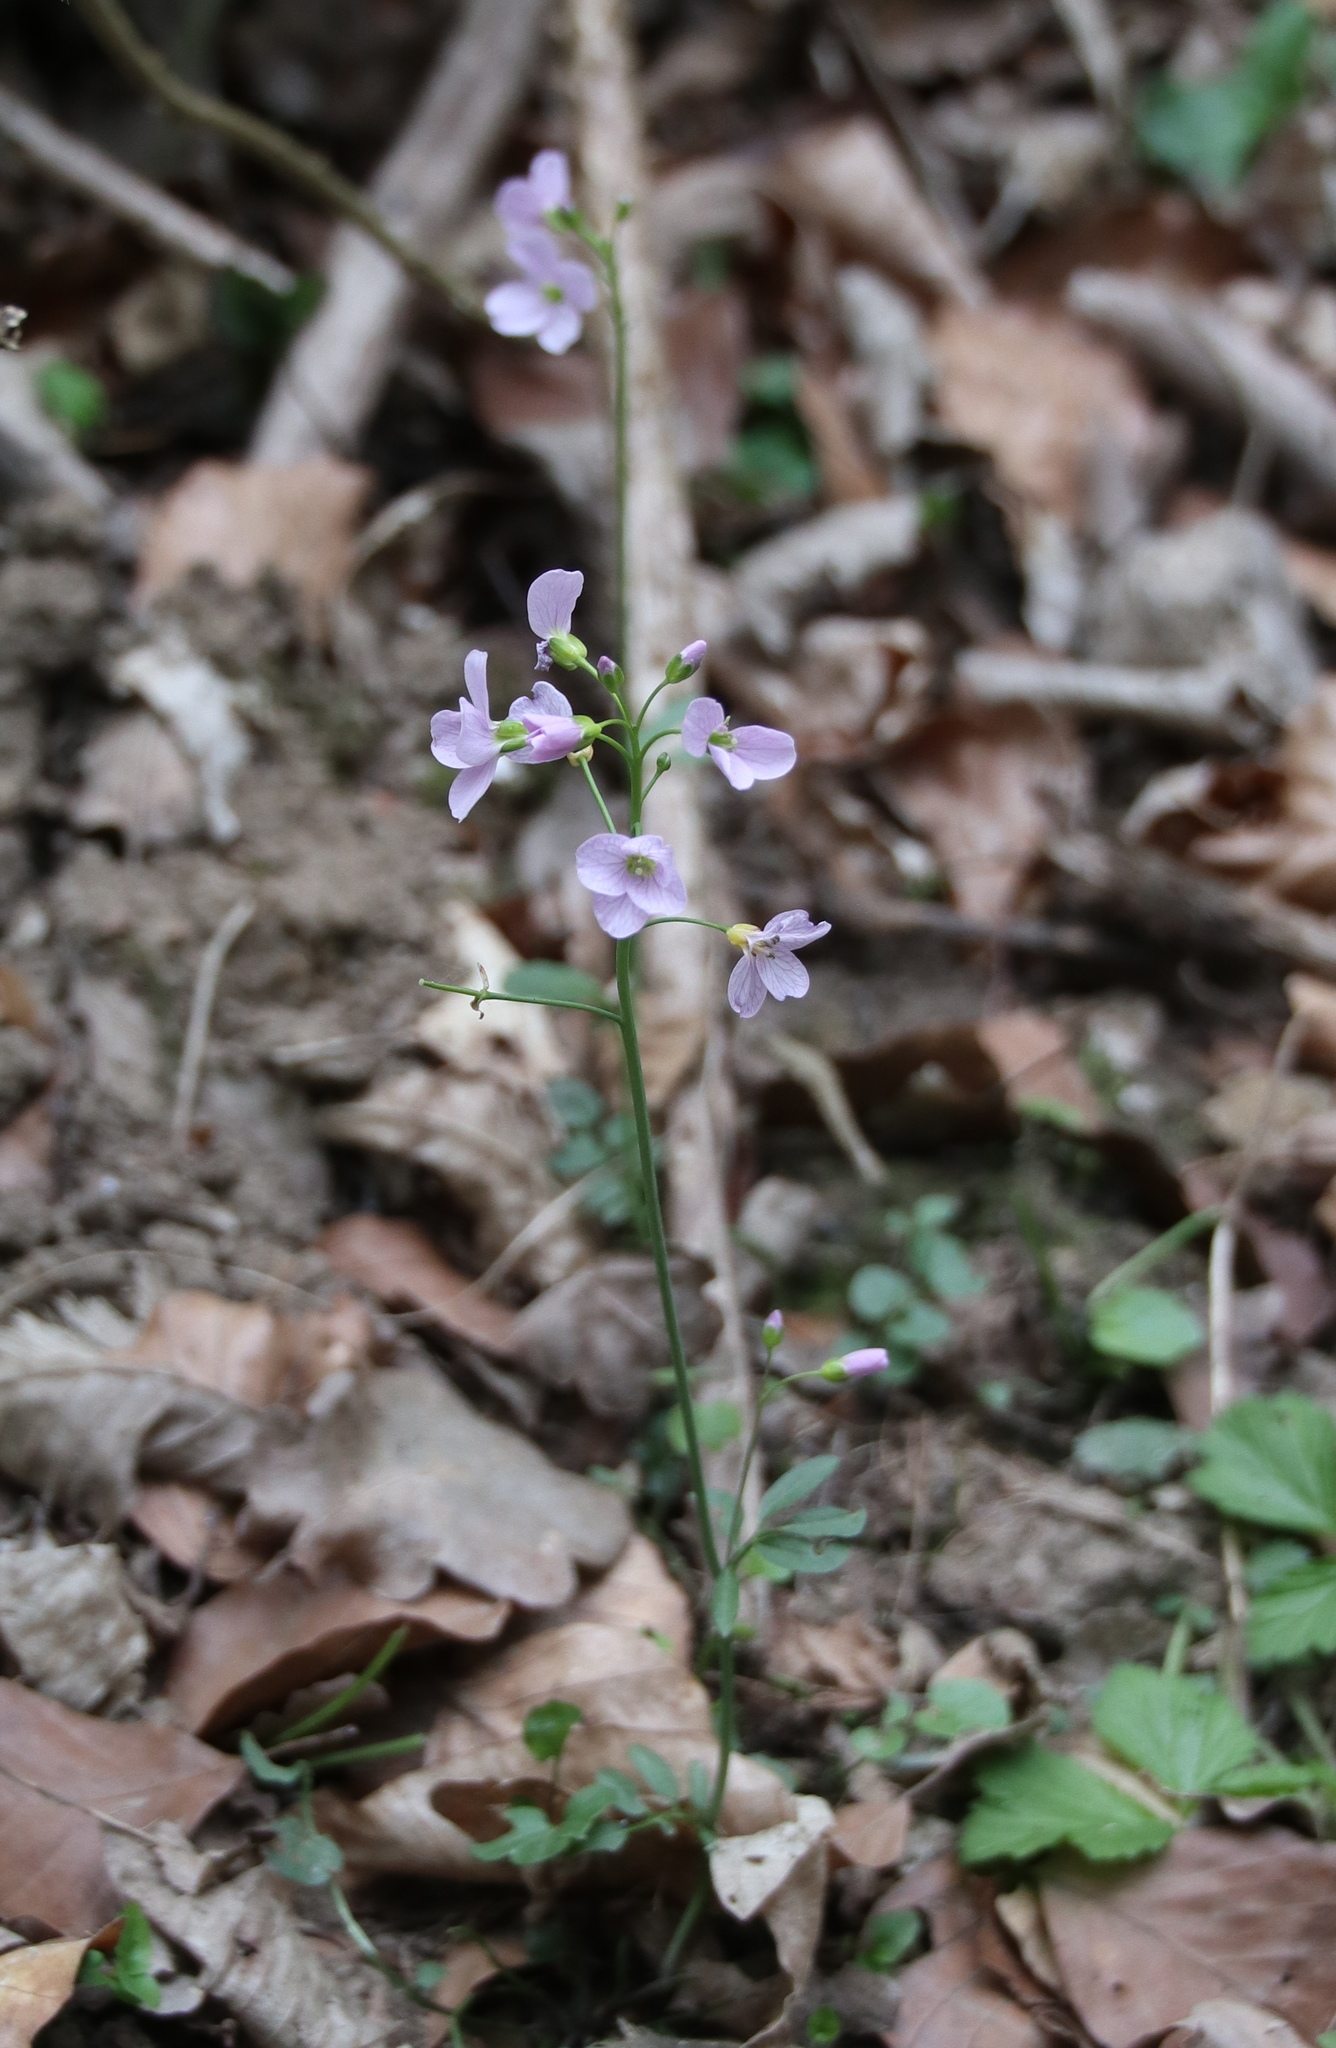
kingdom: Plantae
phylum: Tracheophyta
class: Magnoliopsida
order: Brassicales
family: Brassicaceae
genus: Cardamine
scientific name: Cardamine pratensis
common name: Cuckoo flower
